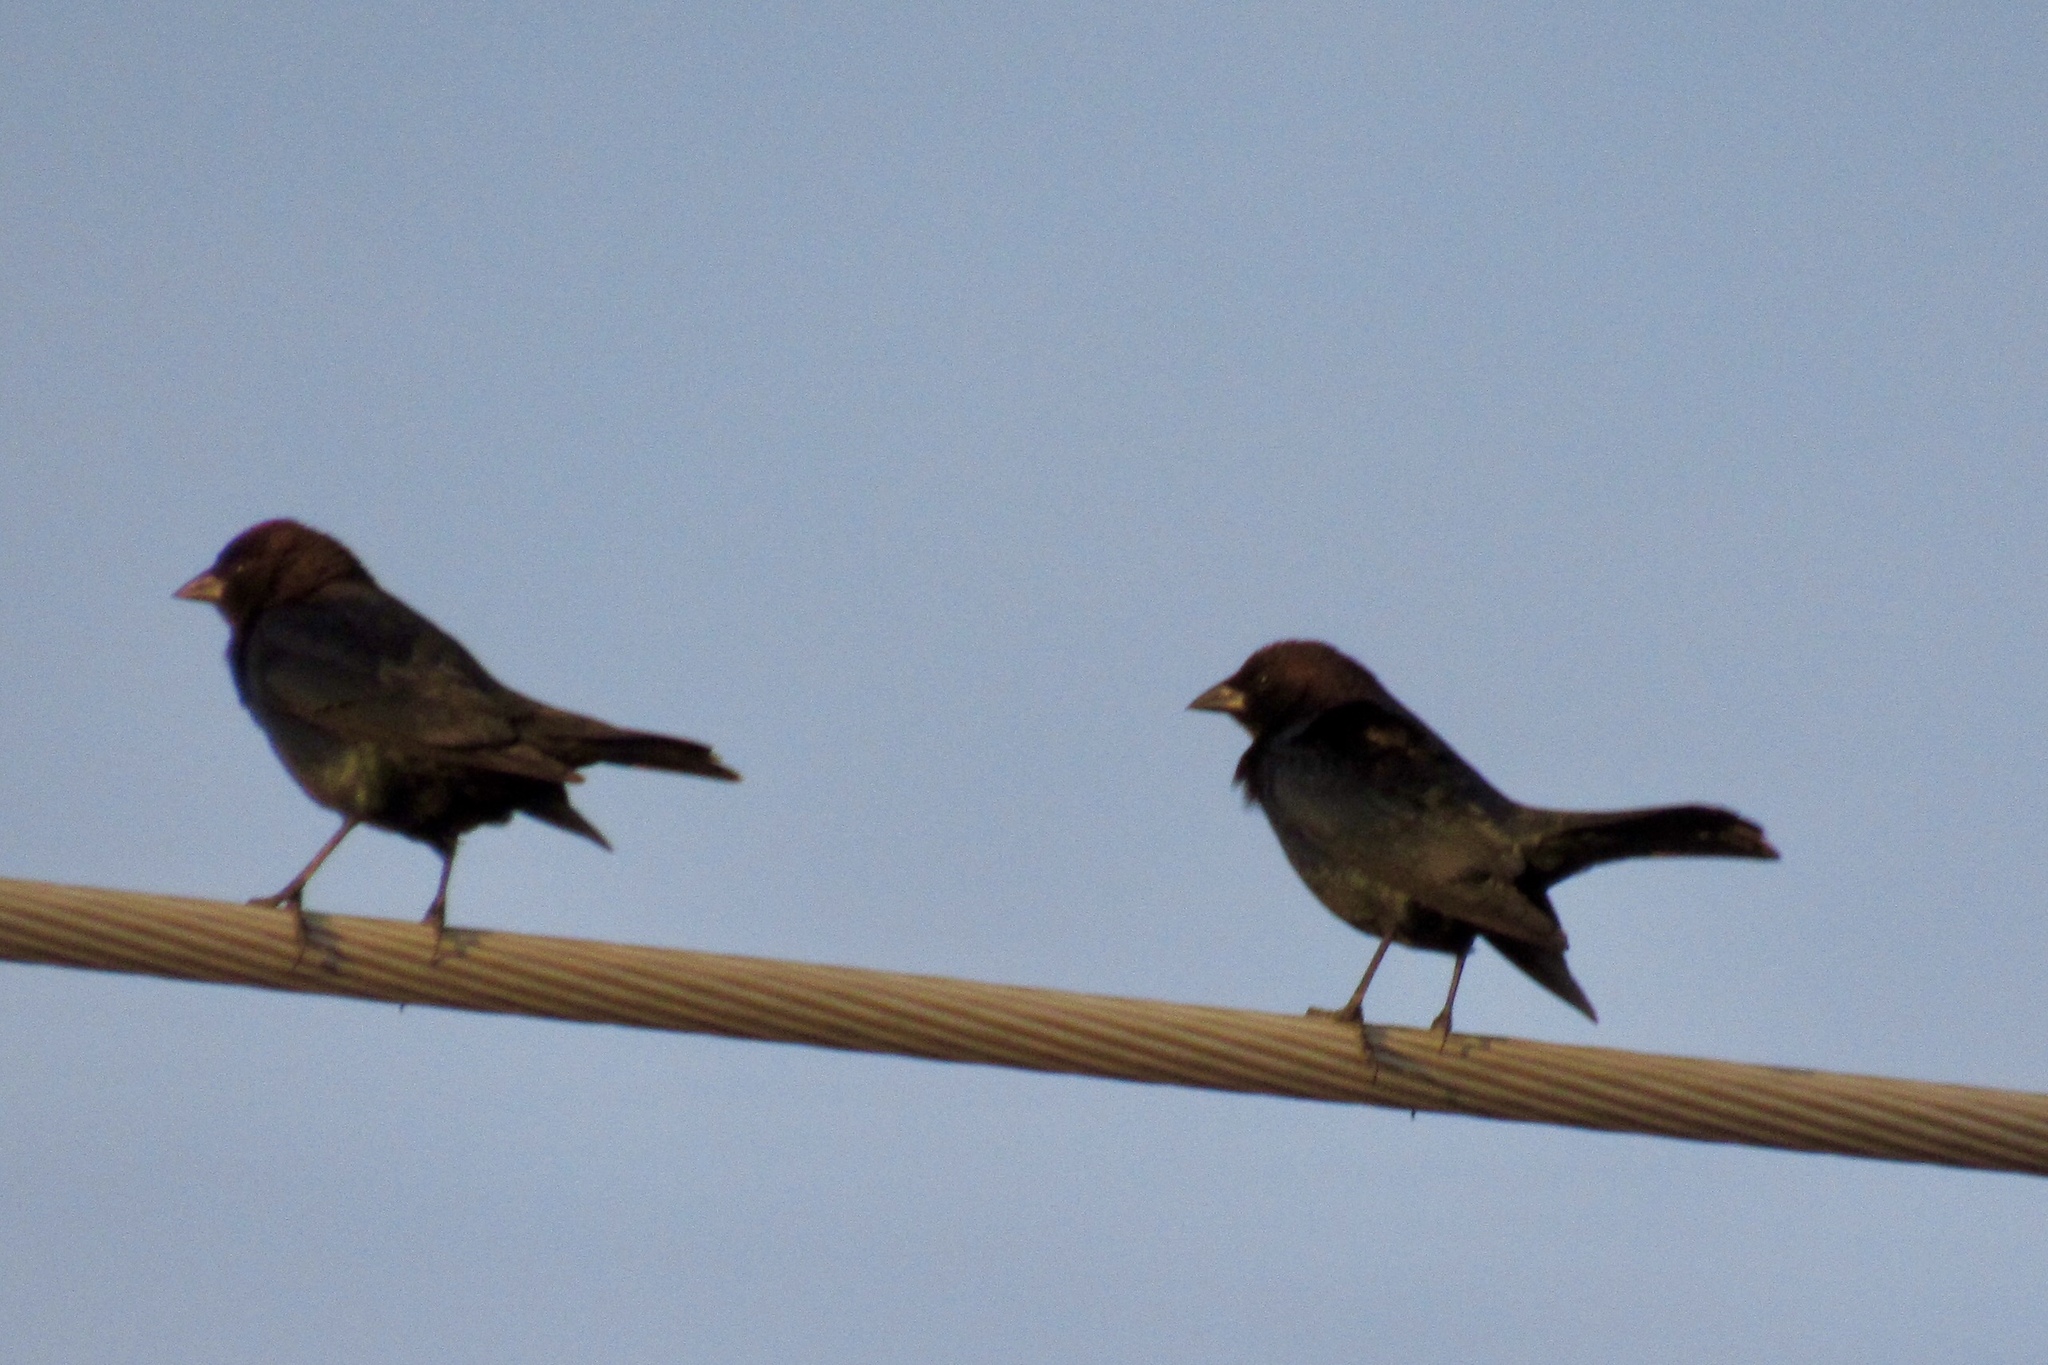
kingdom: Animalia
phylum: Chordata
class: Aves
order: Passeriformes
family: Icteridae
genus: Molothrus
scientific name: Molothrus ater
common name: Brown-headed cowbird
